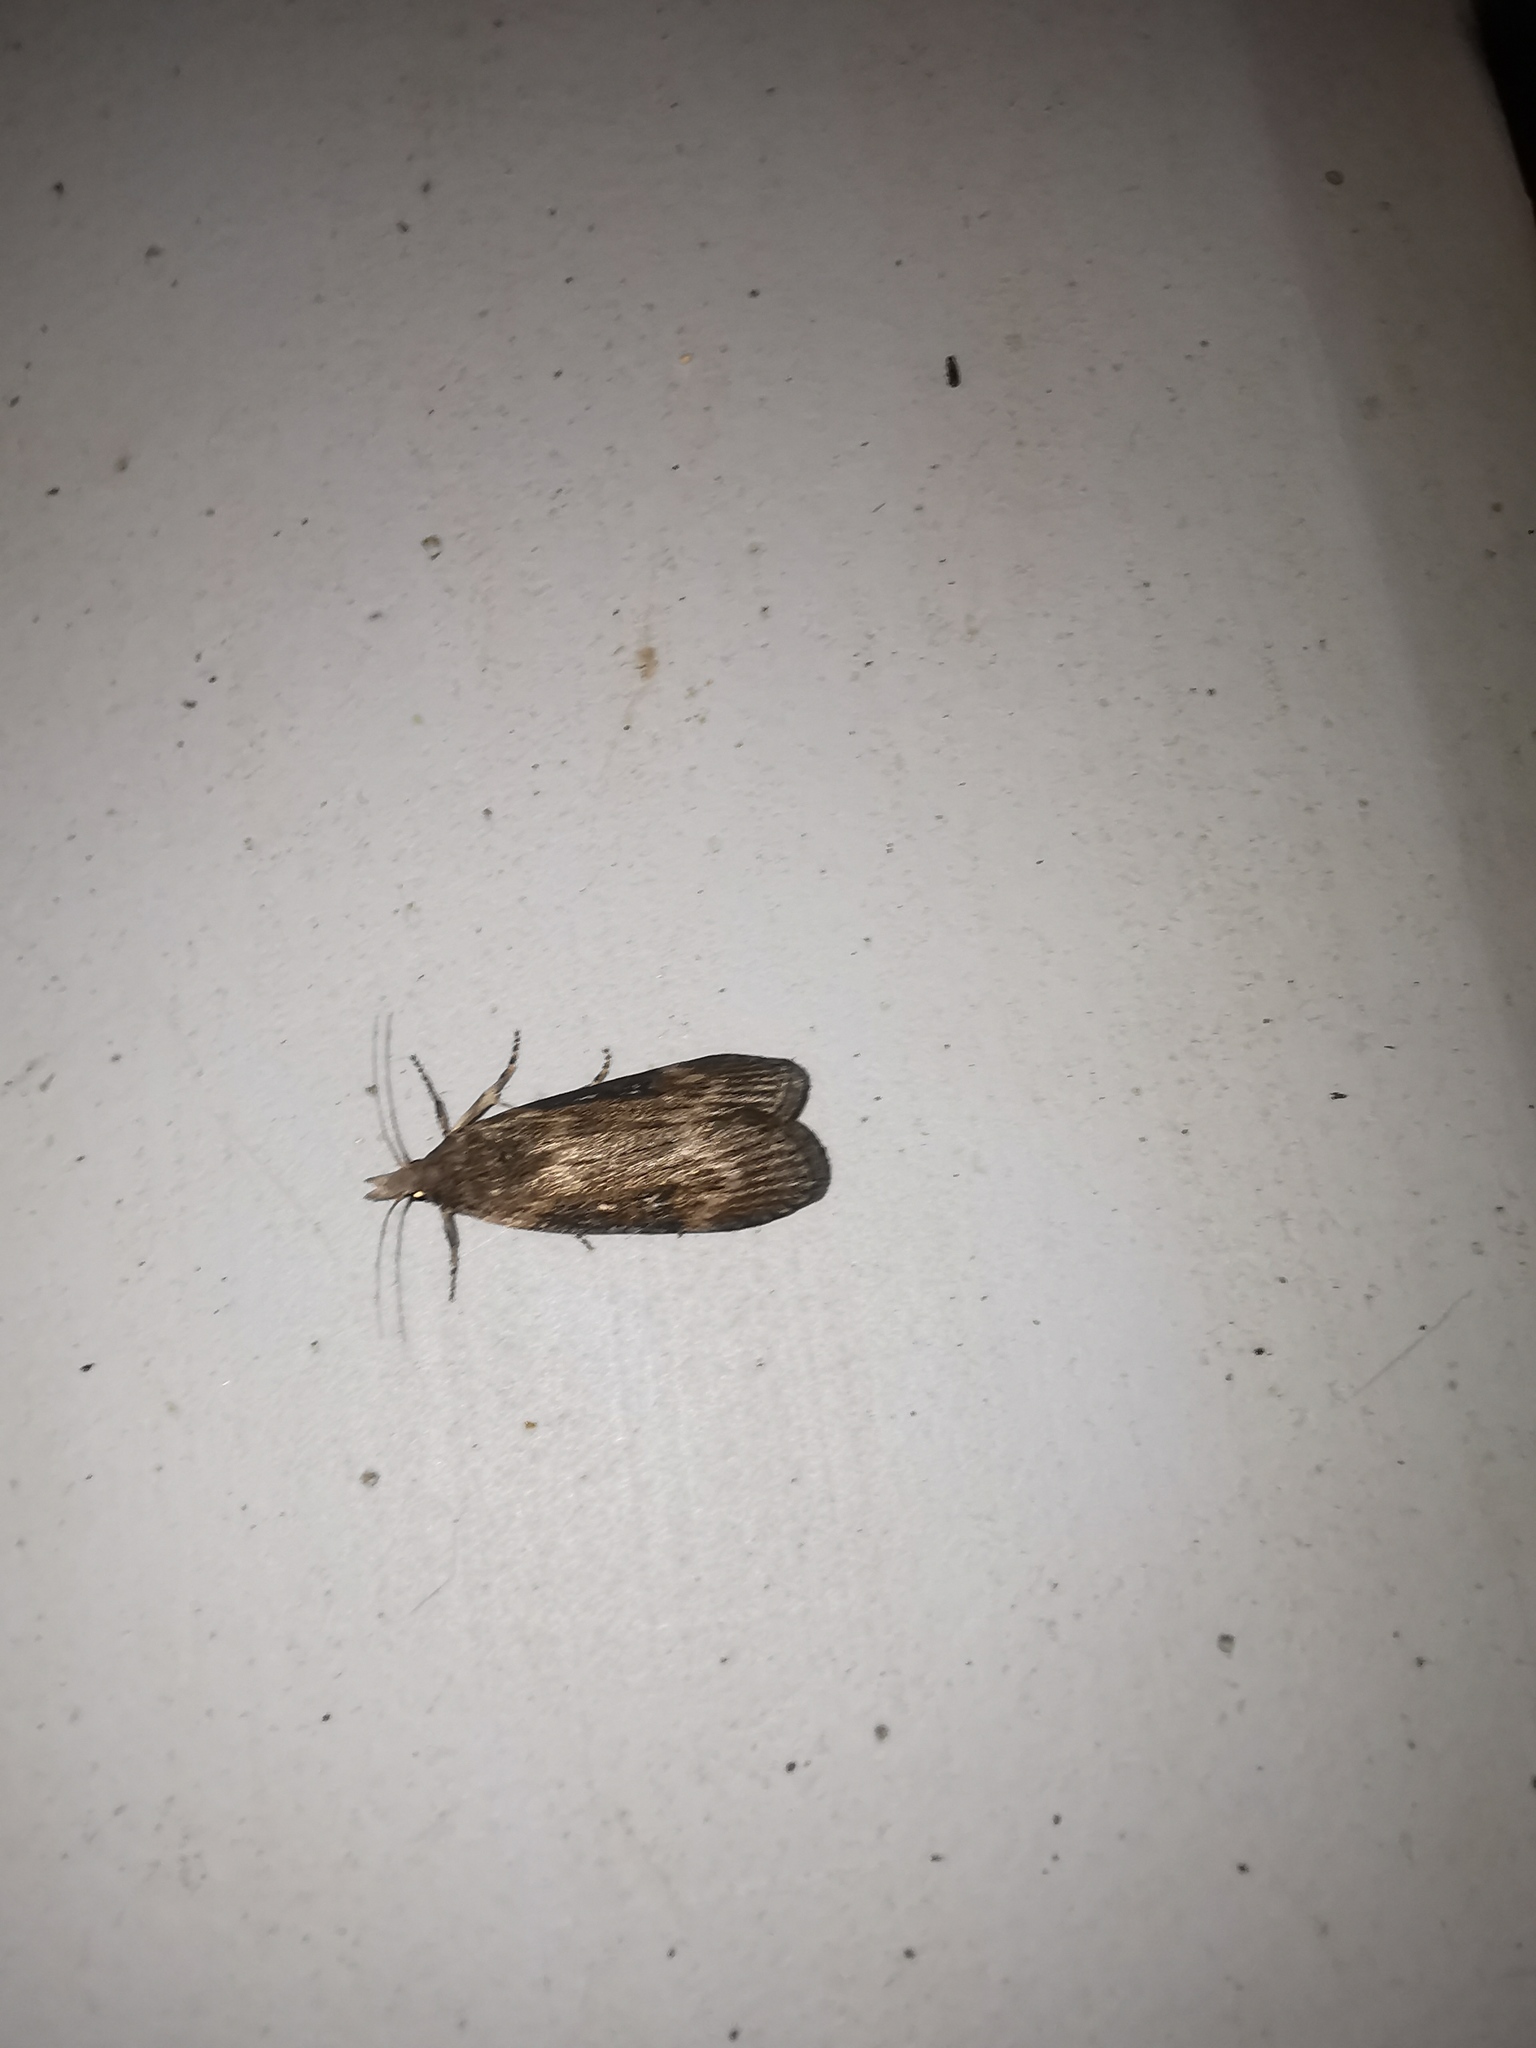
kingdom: Animalia
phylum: Arthropoda
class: Insecta
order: Lepidoptera
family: Pyralidae
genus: Lamoria
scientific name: Lamoria anella
